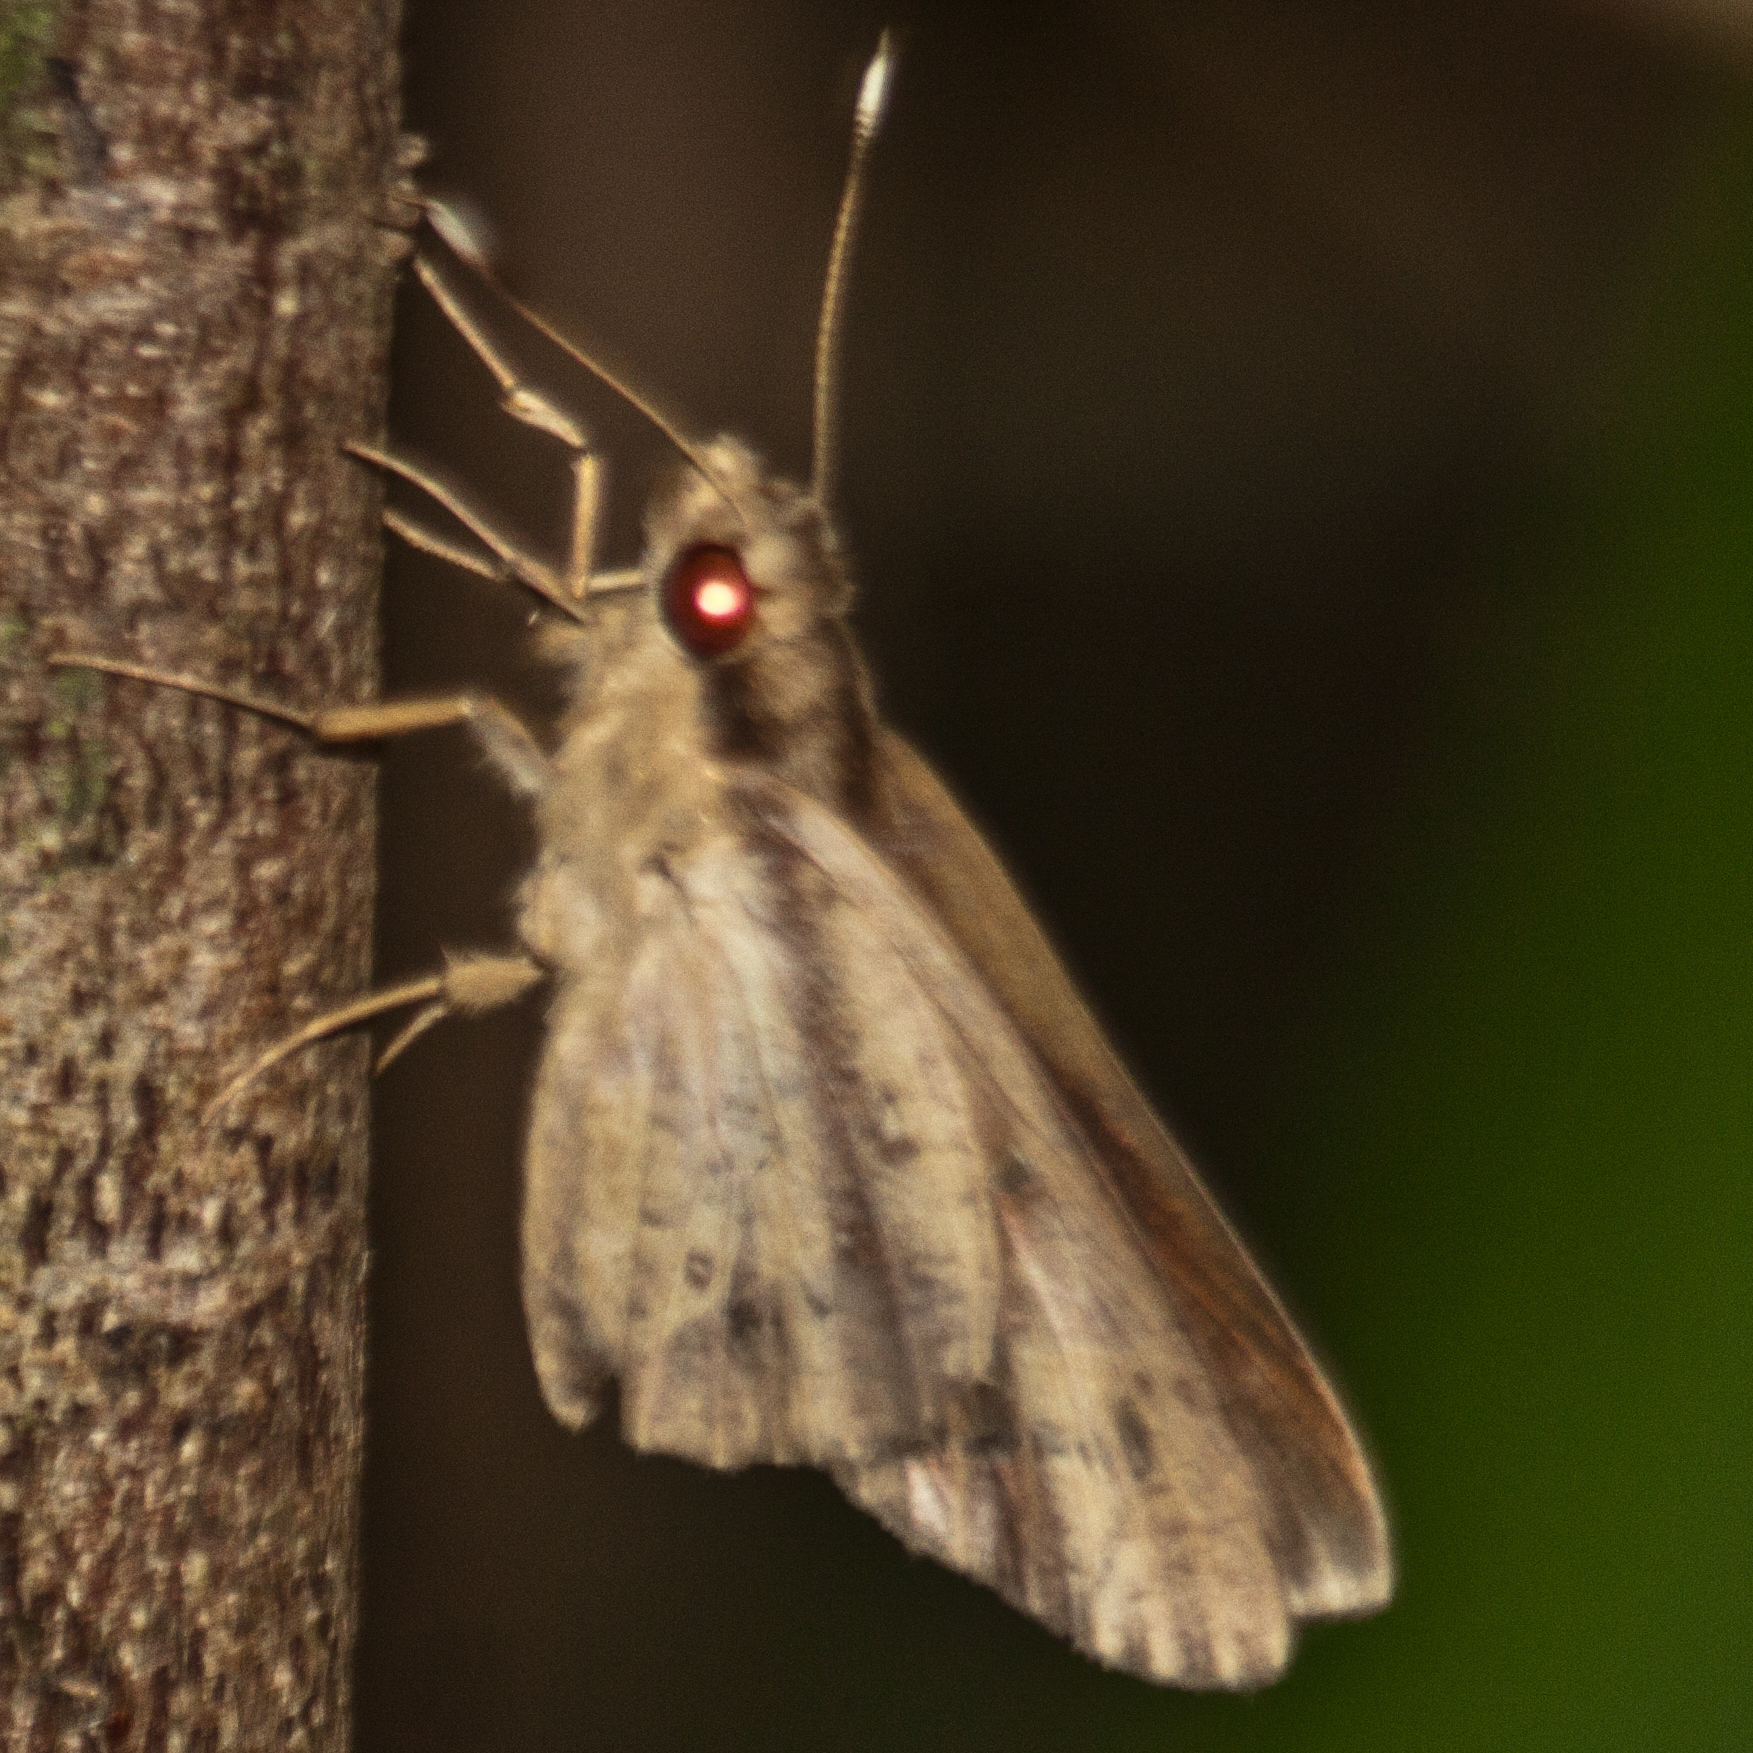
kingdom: Animalia
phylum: Arthropoda
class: Insecta
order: Lepidoptera
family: Hesperiidae
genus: Hidari
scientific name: Hidari bhawani
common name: Veined palmer
